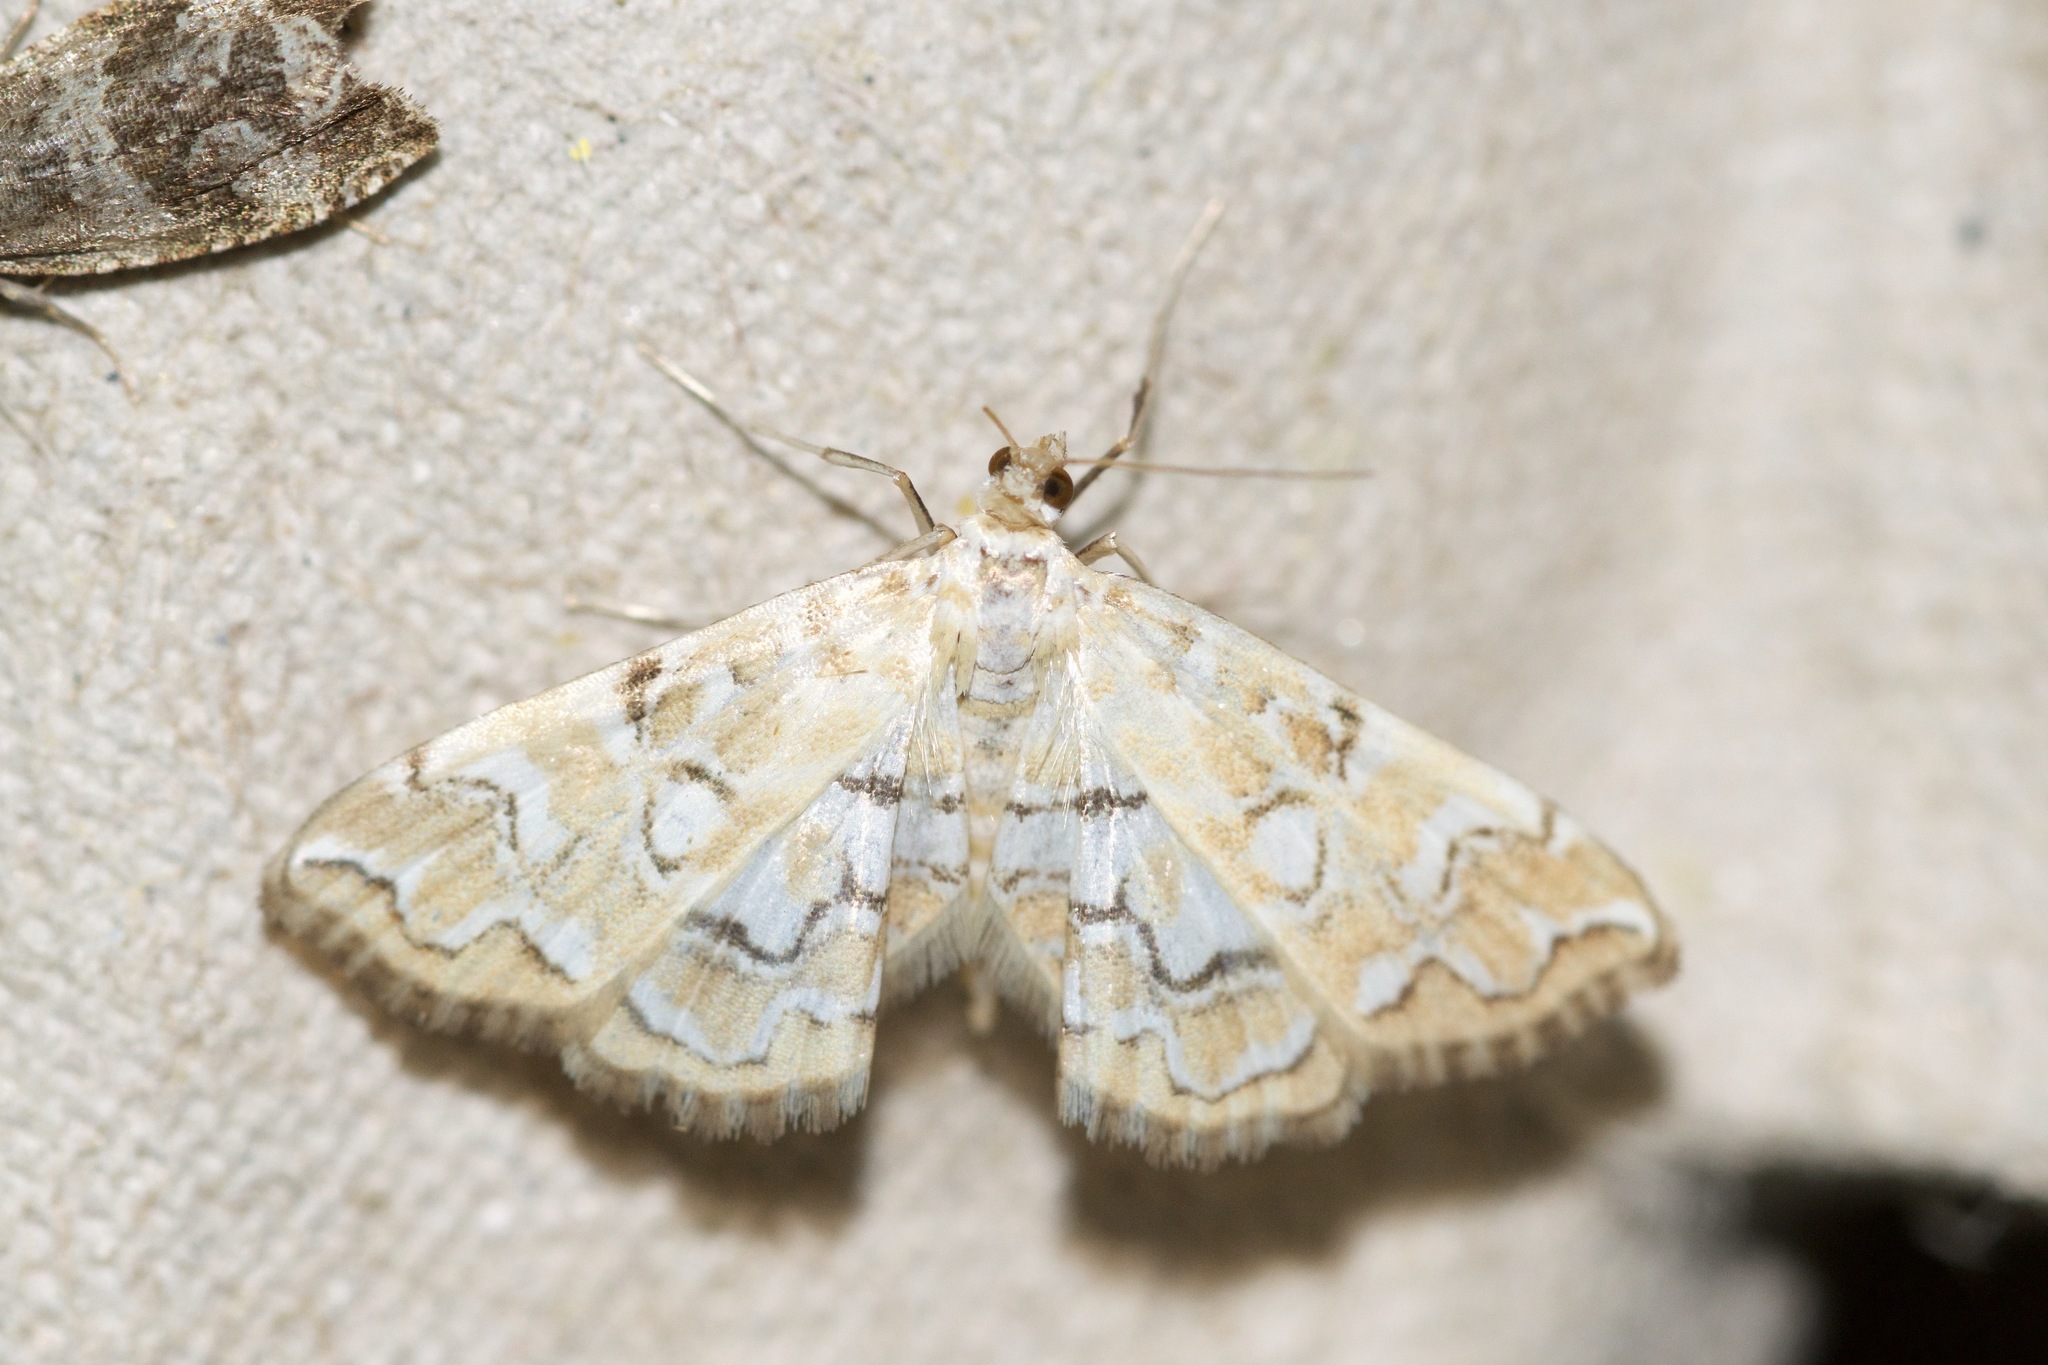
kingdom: Animalia
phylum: Arthropoda
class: Insecta
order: Lepidoptera
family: Crambidae
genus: Elophila
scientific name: Elophila icciusalis
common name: Pondside pyralid moth
